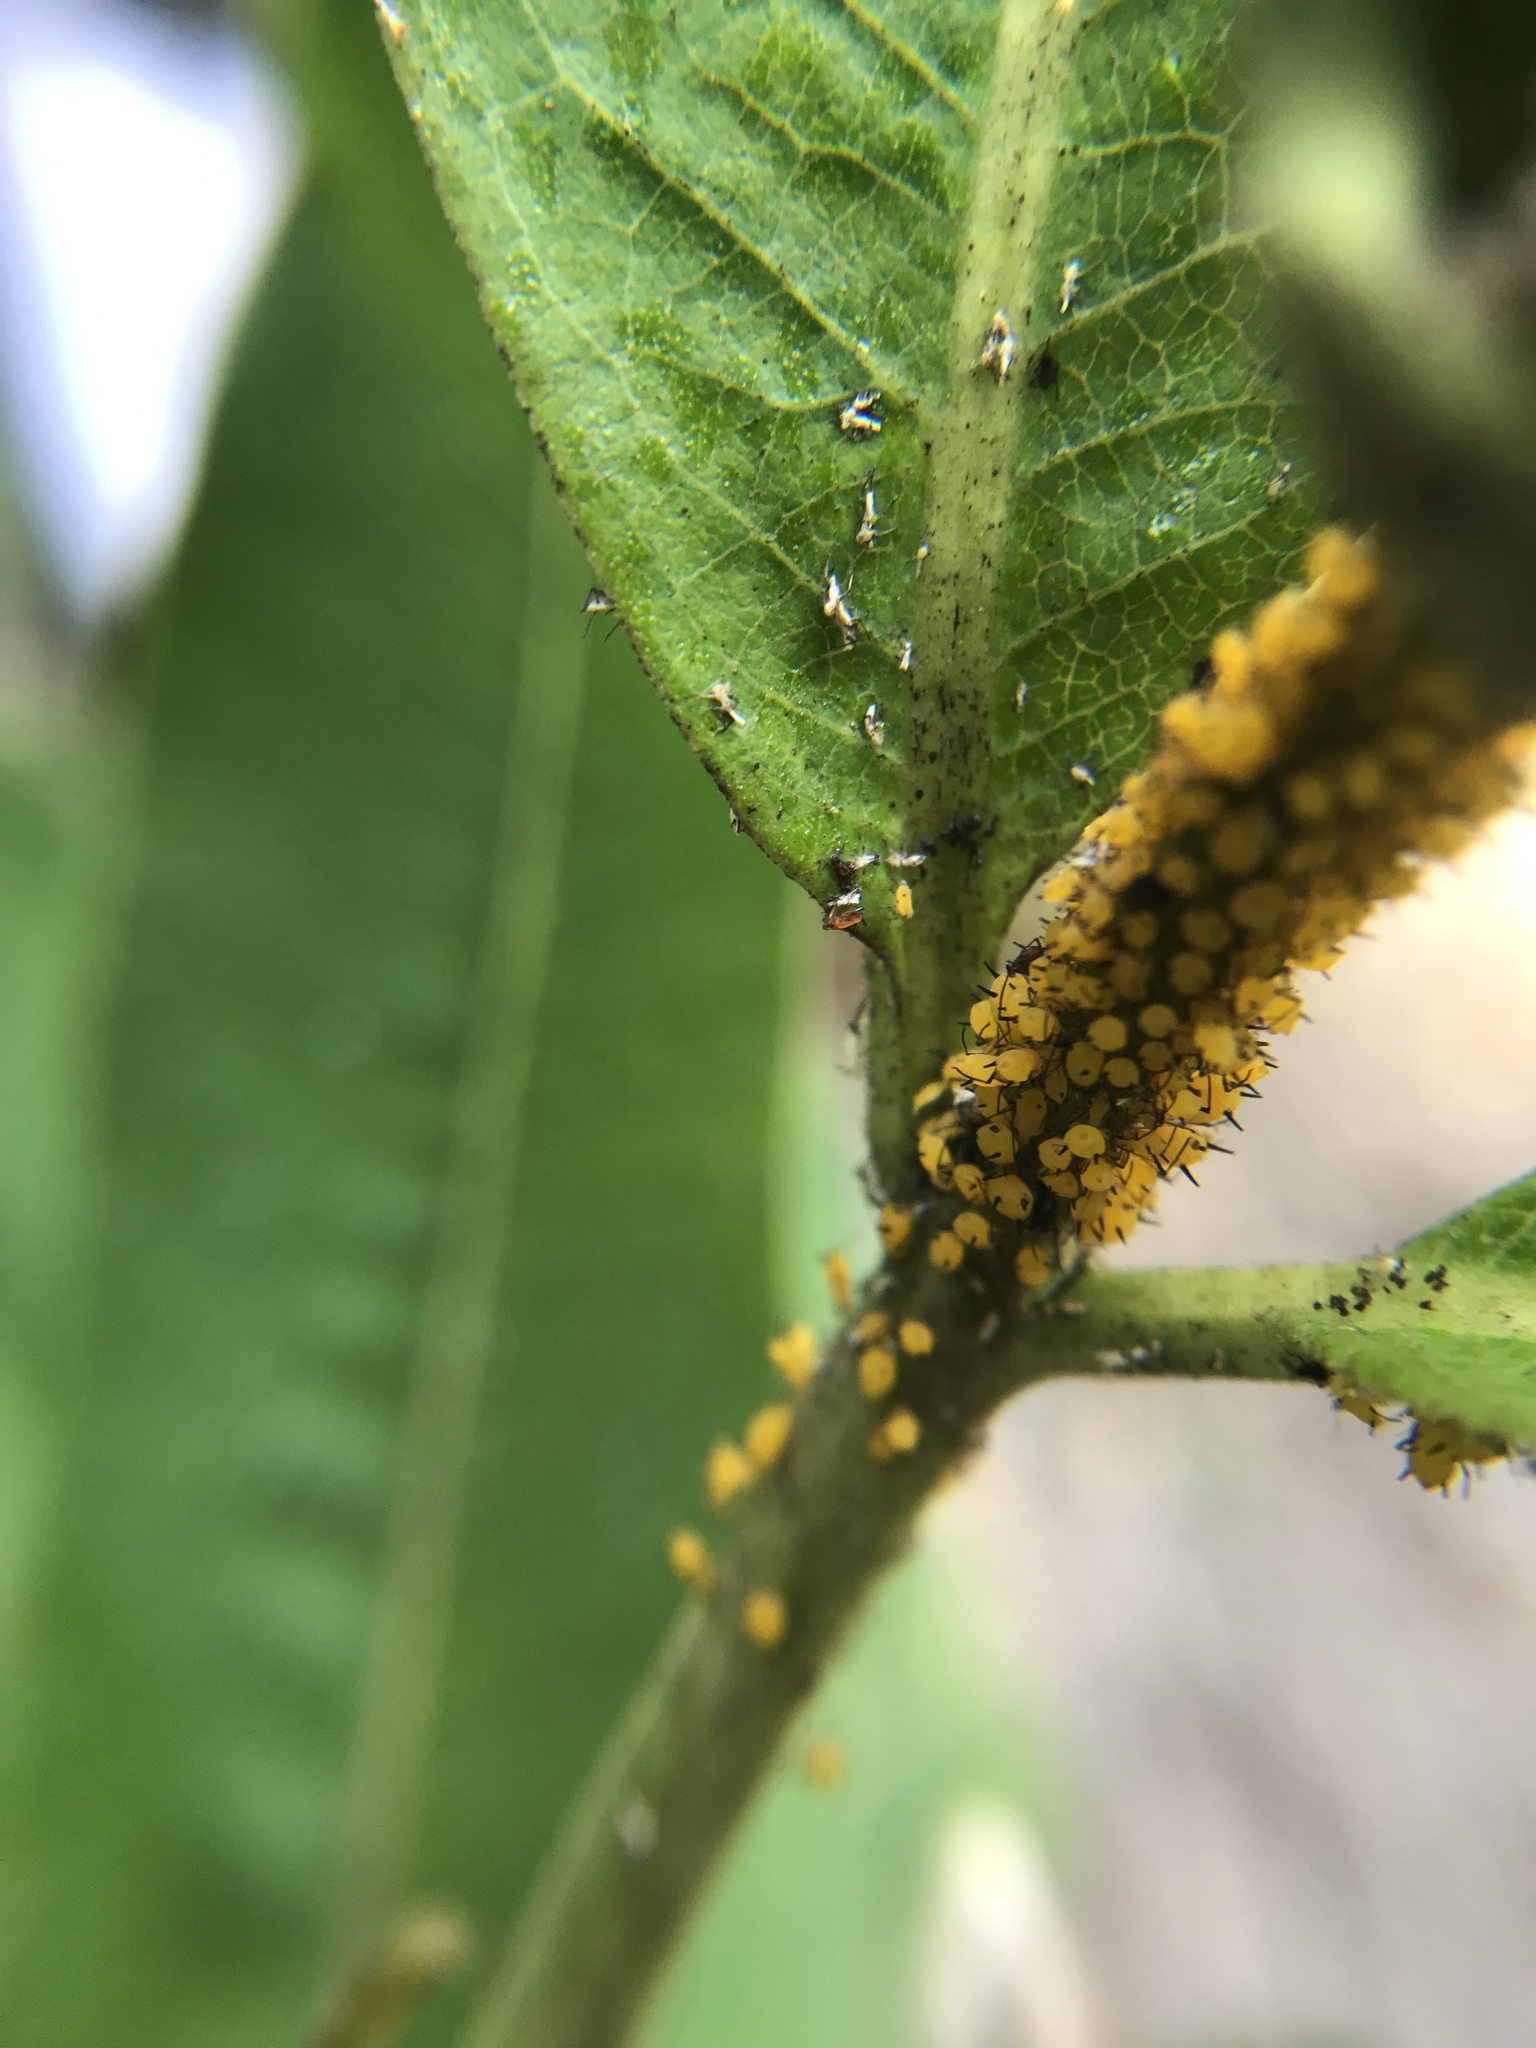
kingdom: Animalia
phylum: Arthropoda
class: Insecta
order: Hemiptera
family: Aphididae
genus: Aphis
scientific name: Aphis nerii
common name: Oleander aphid
